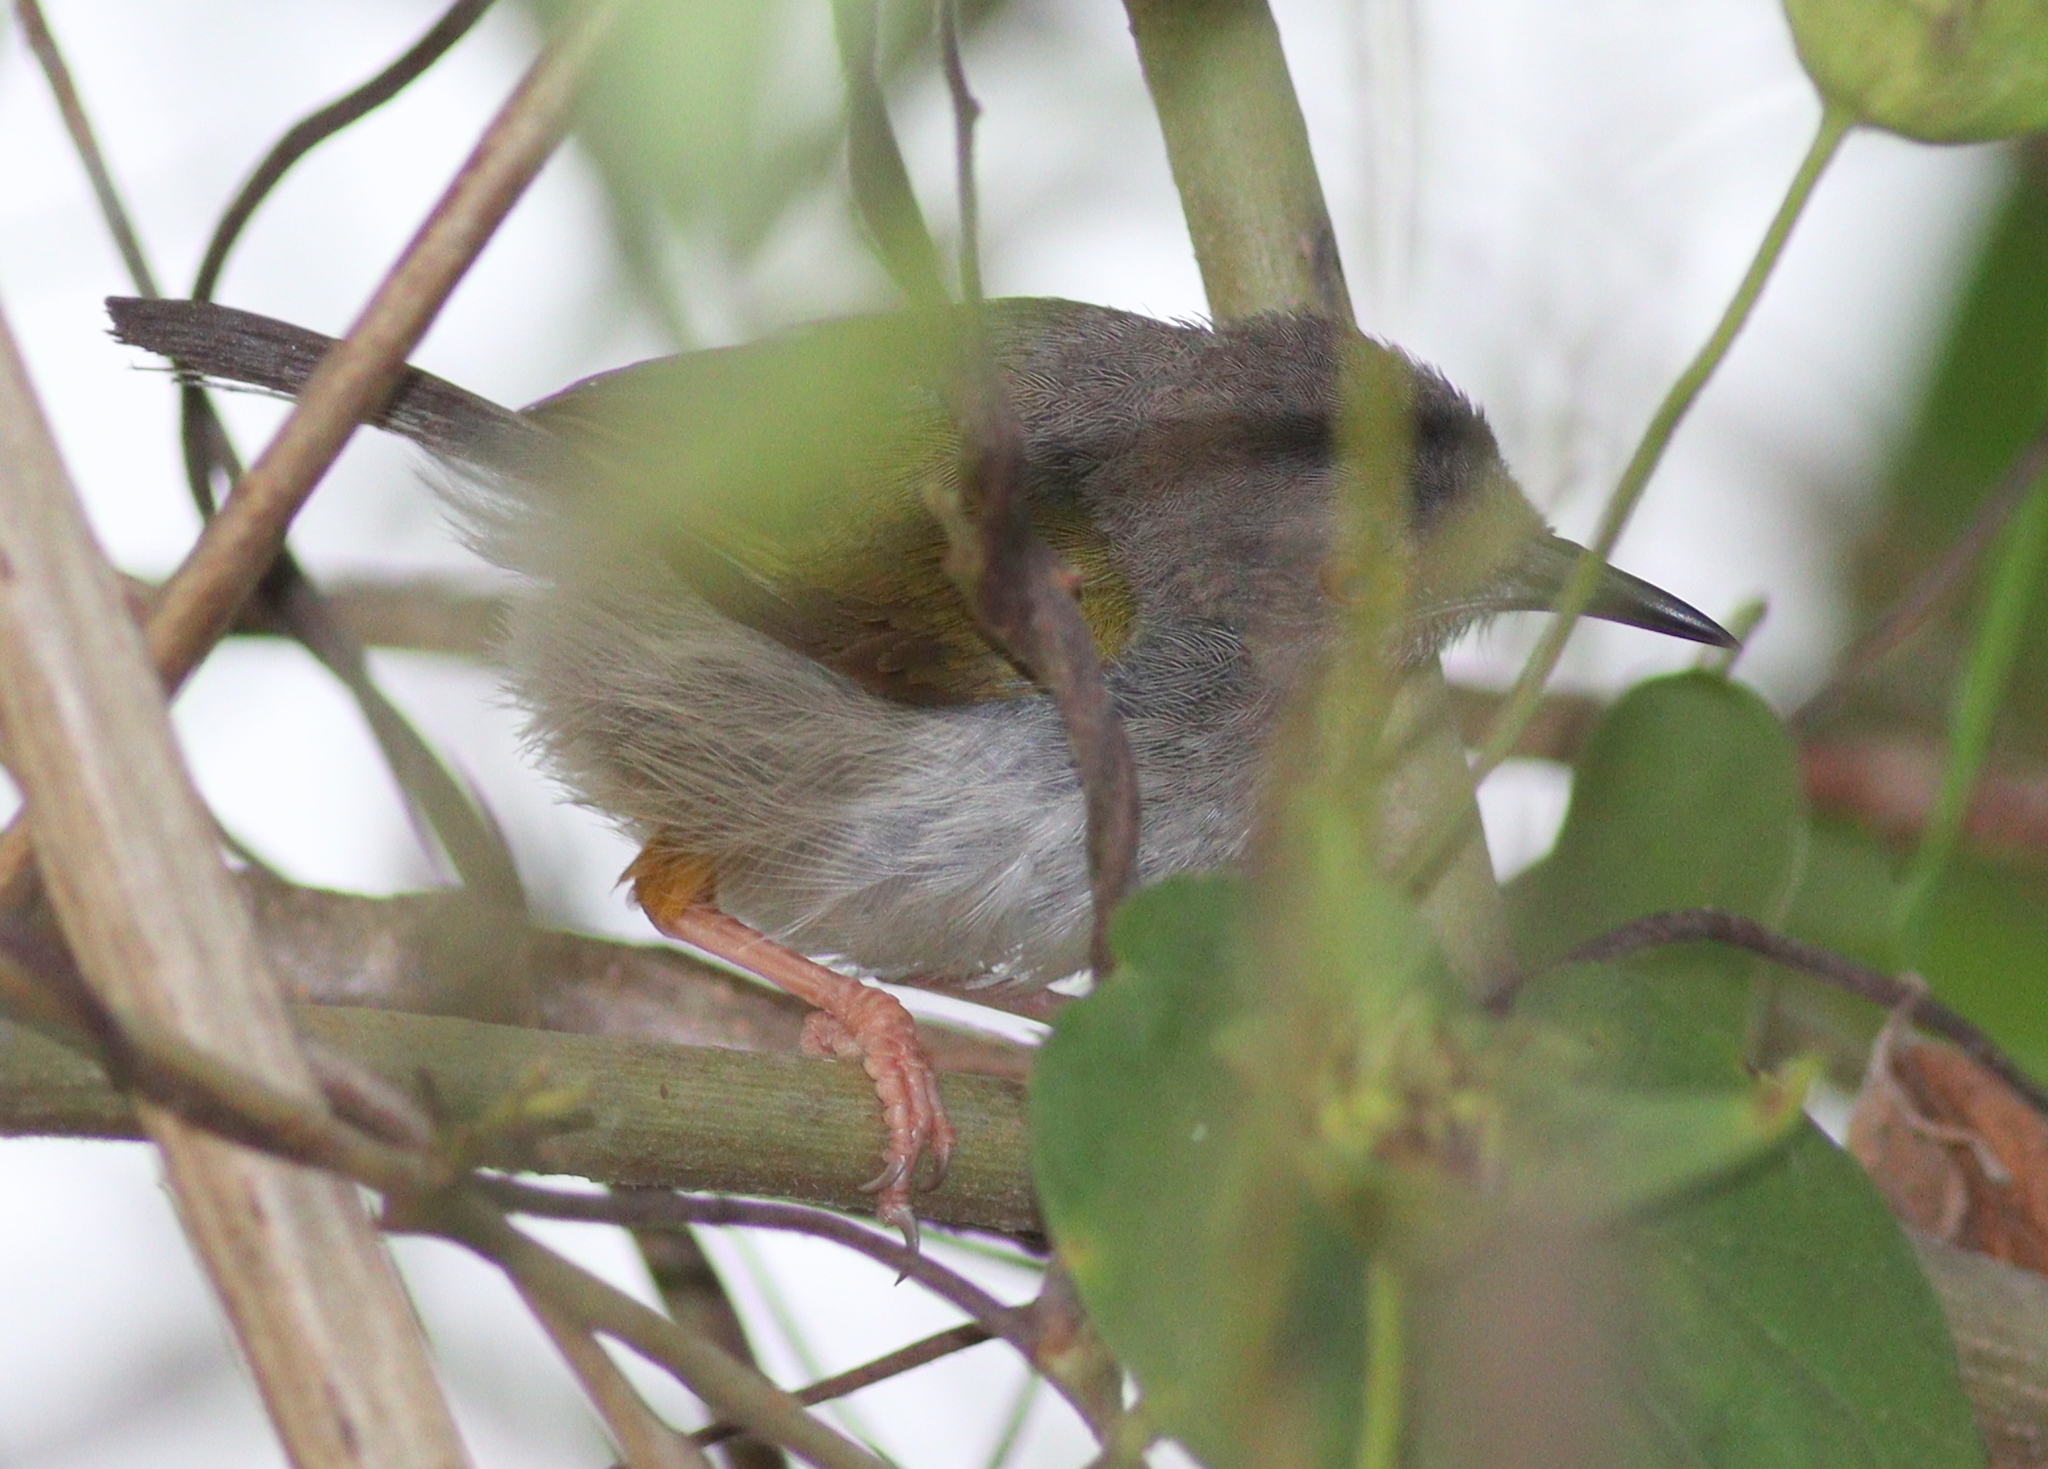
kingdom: Animalia
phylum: Chordata
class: Aves
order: Passeriformes
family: Cisticolidae
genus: Camaroptera
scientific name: Camaroptera brachyura
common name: Green-backed camaroptera
